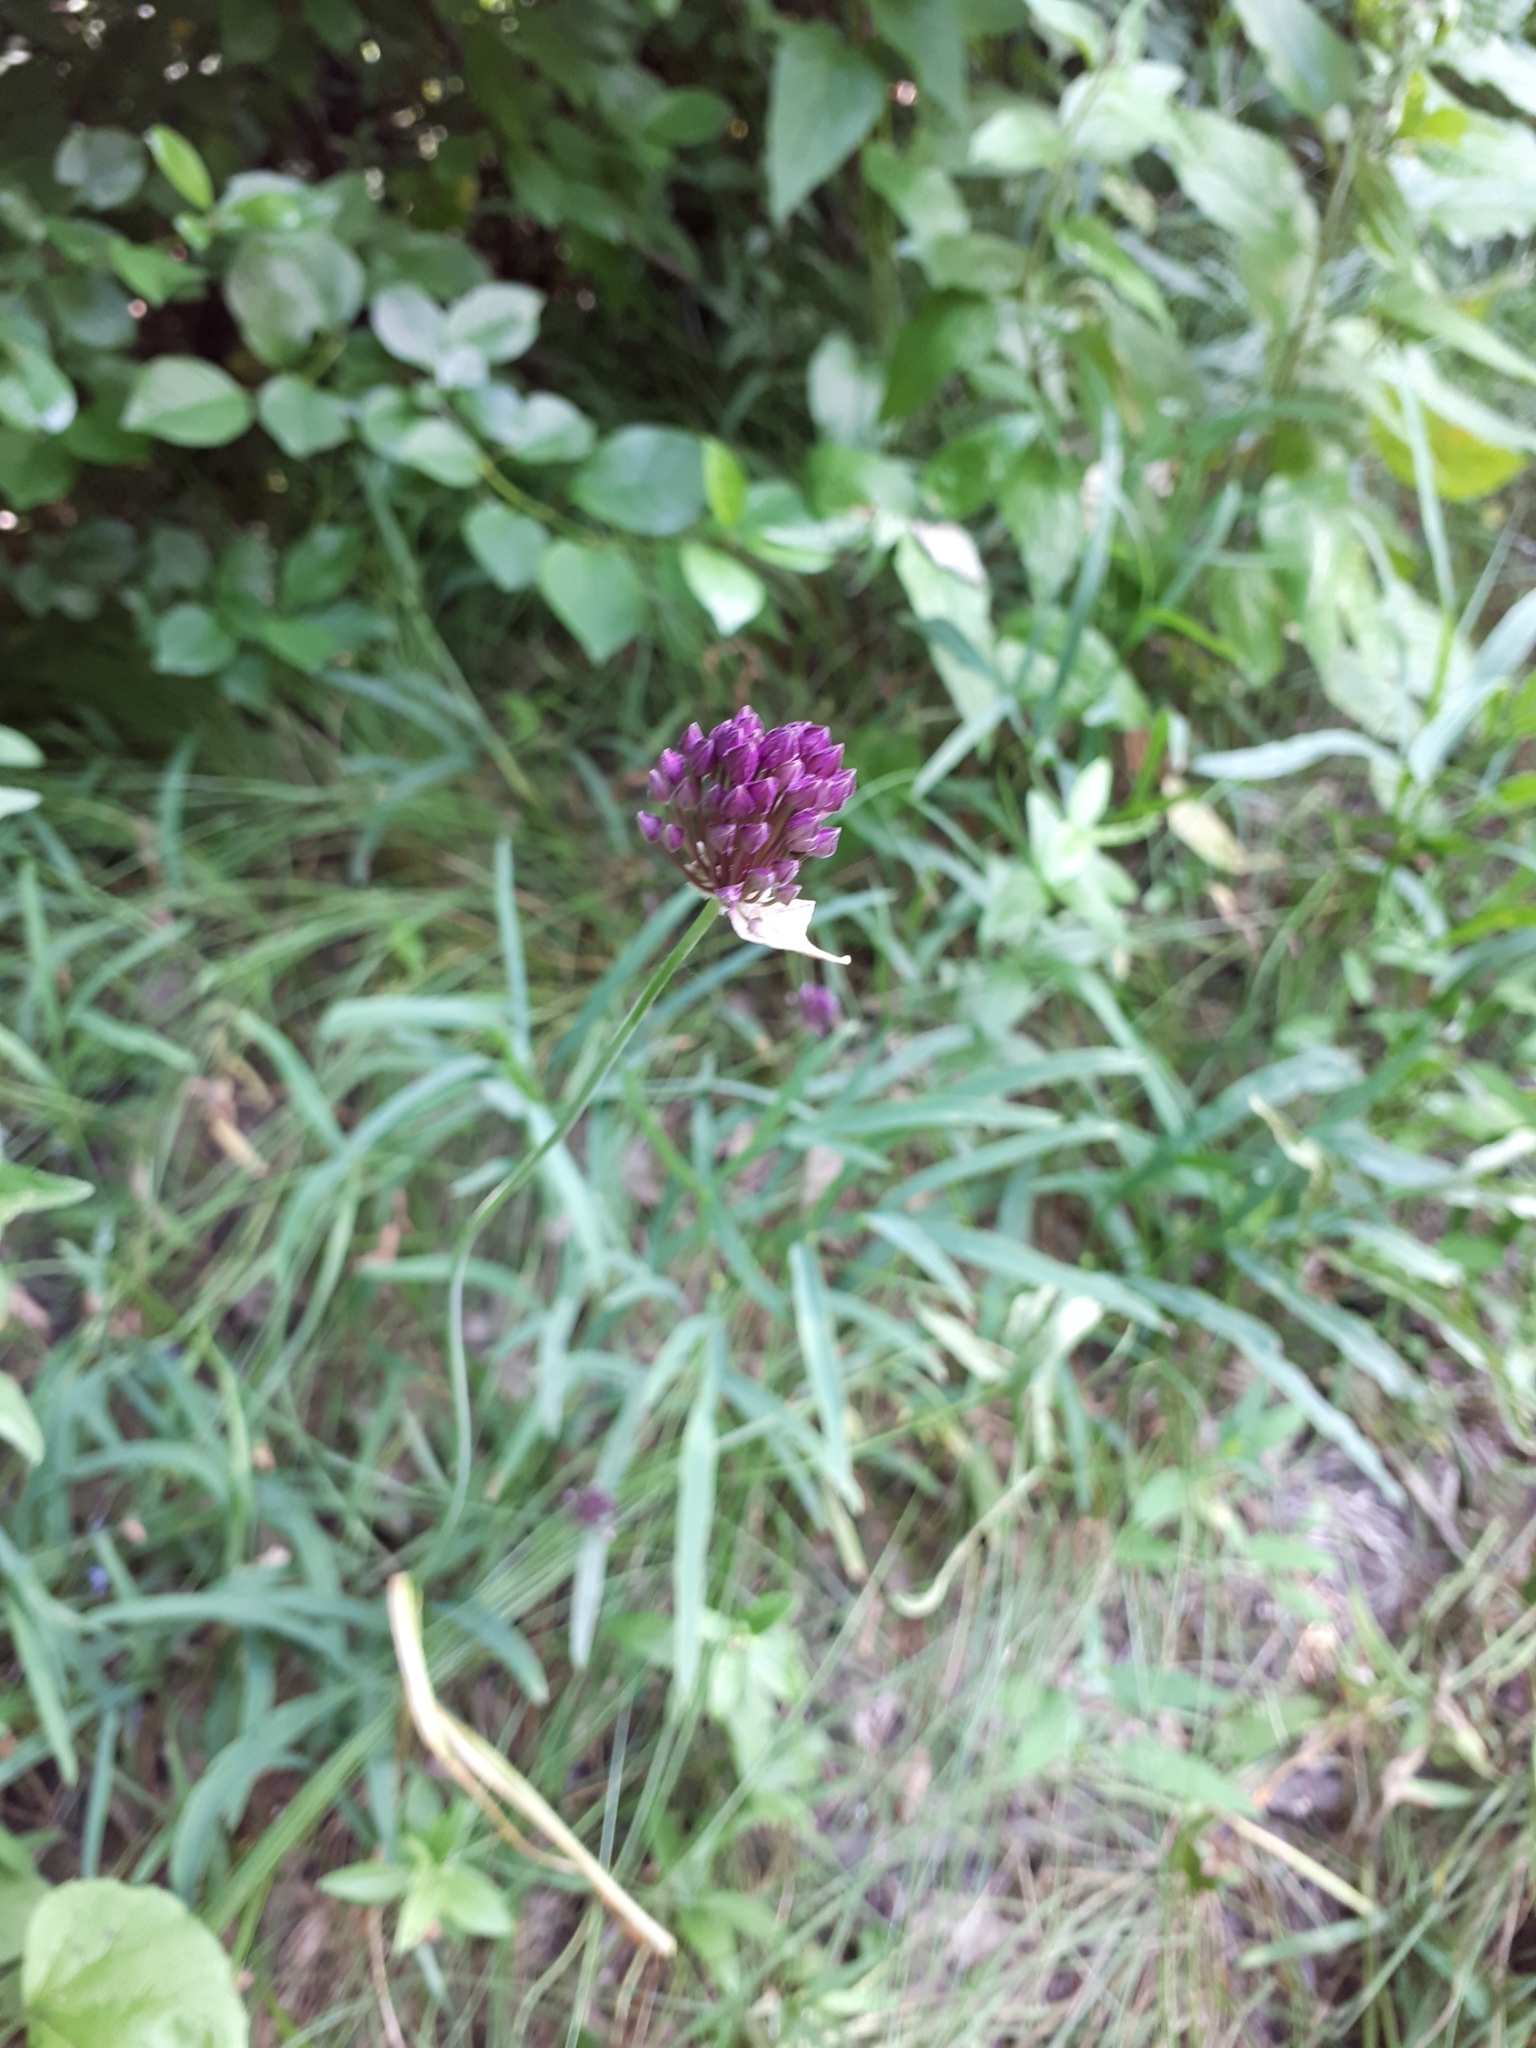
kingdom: Plantae
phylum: Tracheophyta
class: Liliopsida
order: Asparagales
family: Amaryllidaceae
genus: Allium
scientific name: Allium rotundum
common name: Sand leek
